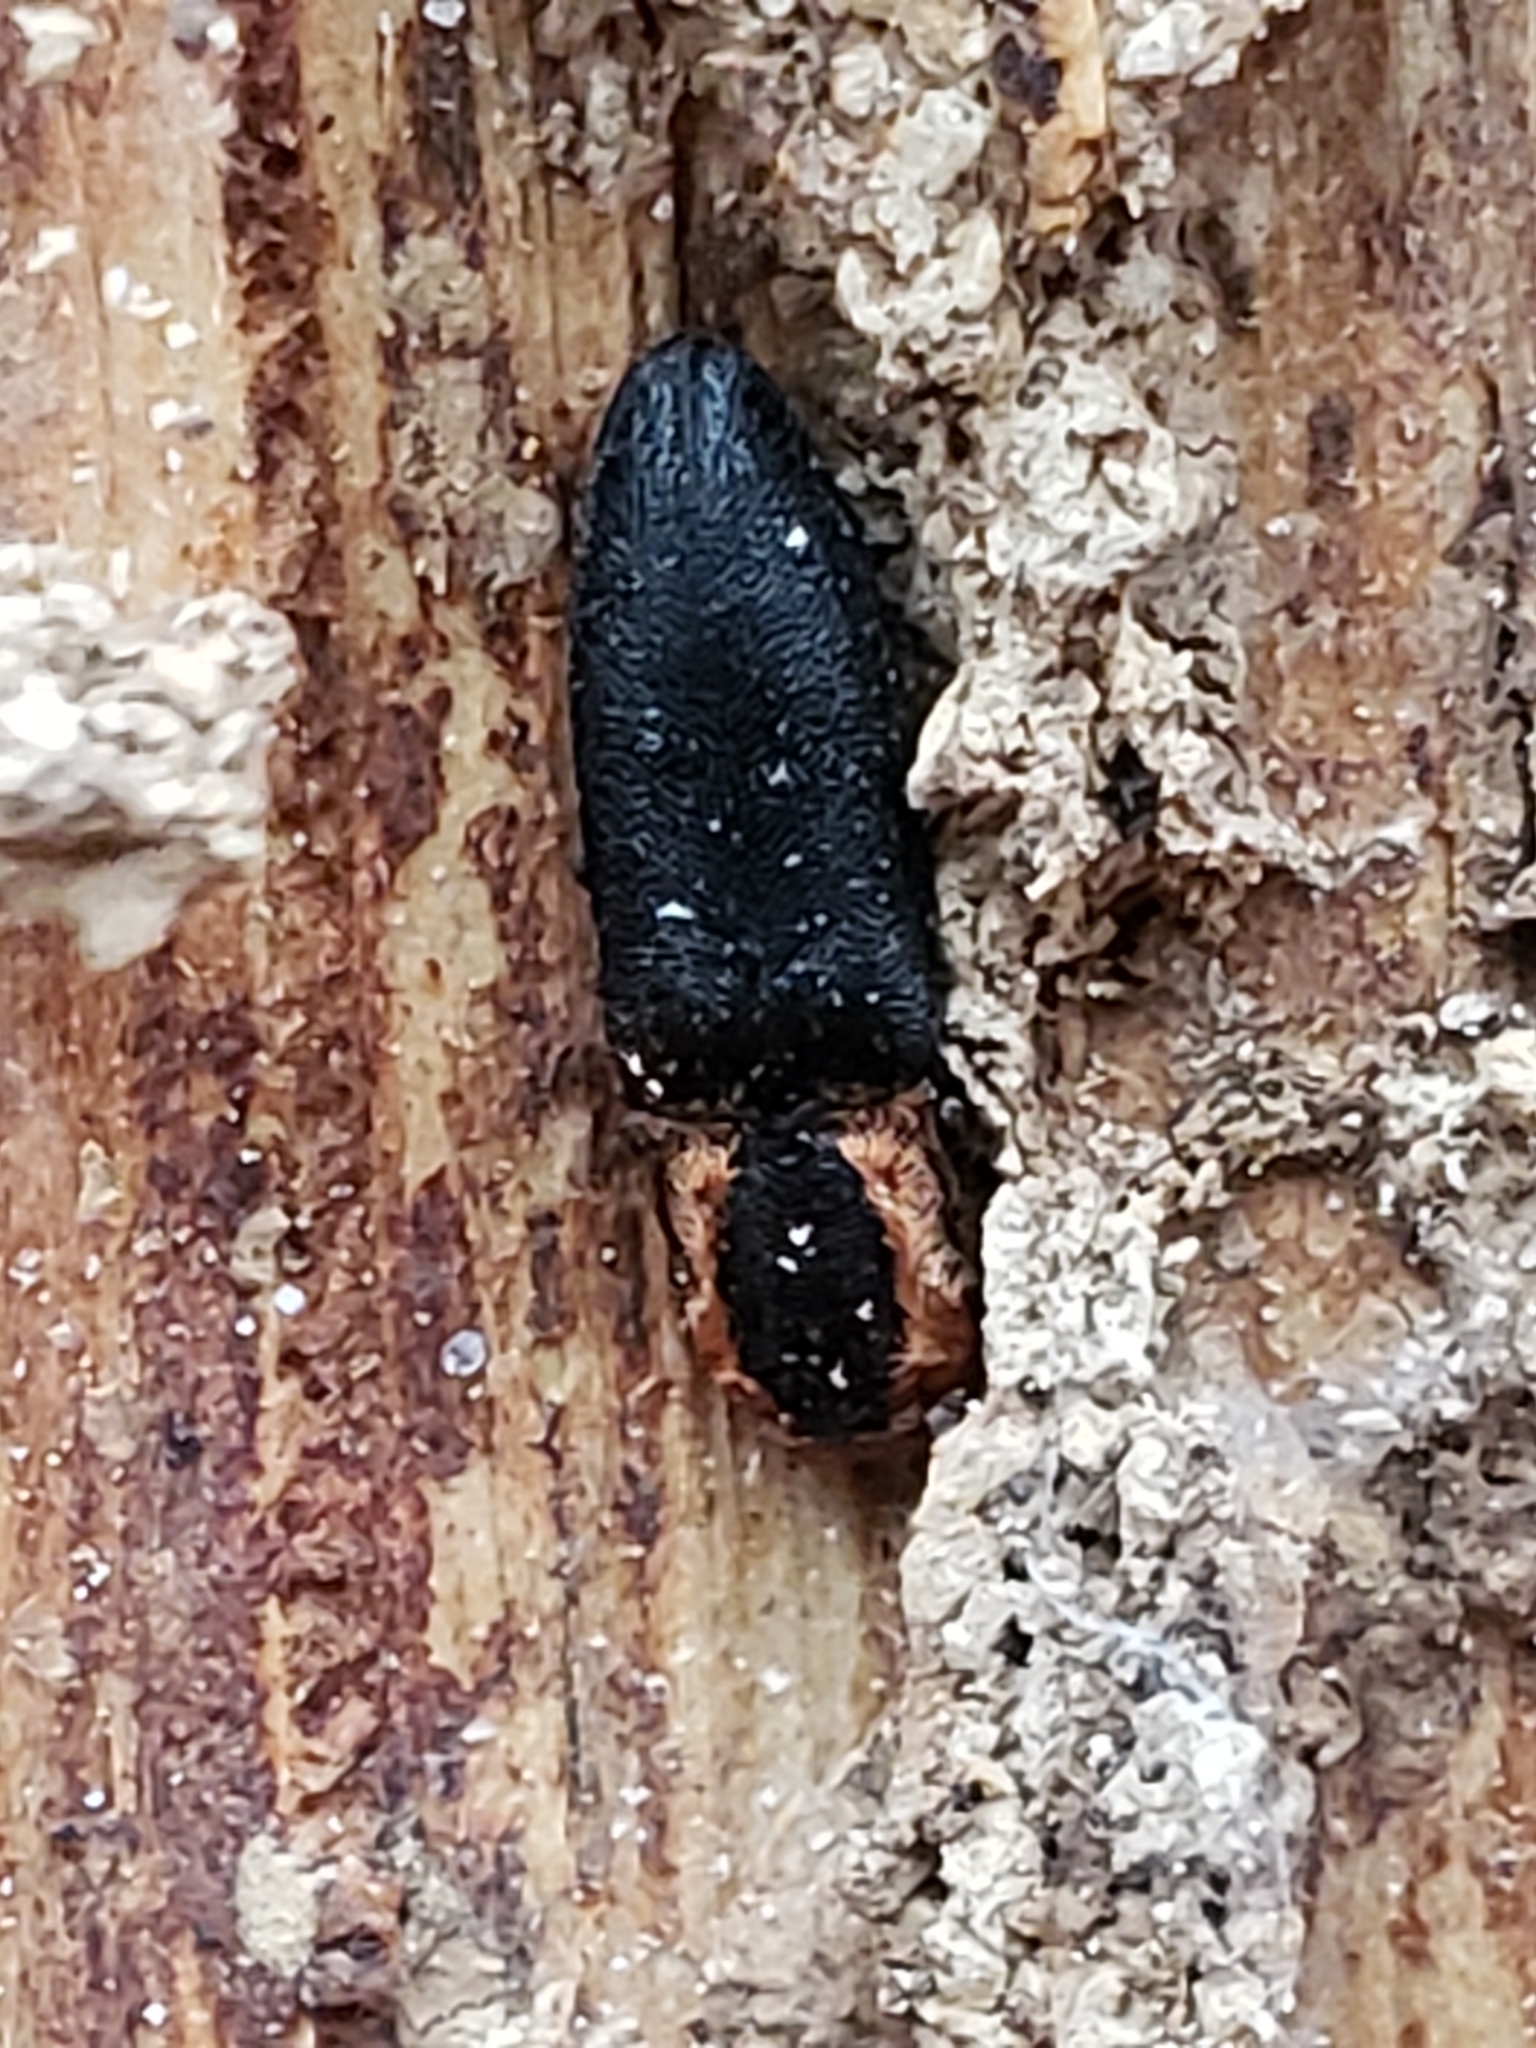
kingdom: Animalia
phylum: Arthropoda
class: Insecta
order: Coleoptera
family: Elateridae
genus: Lacon
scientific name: Lacon discoideus
